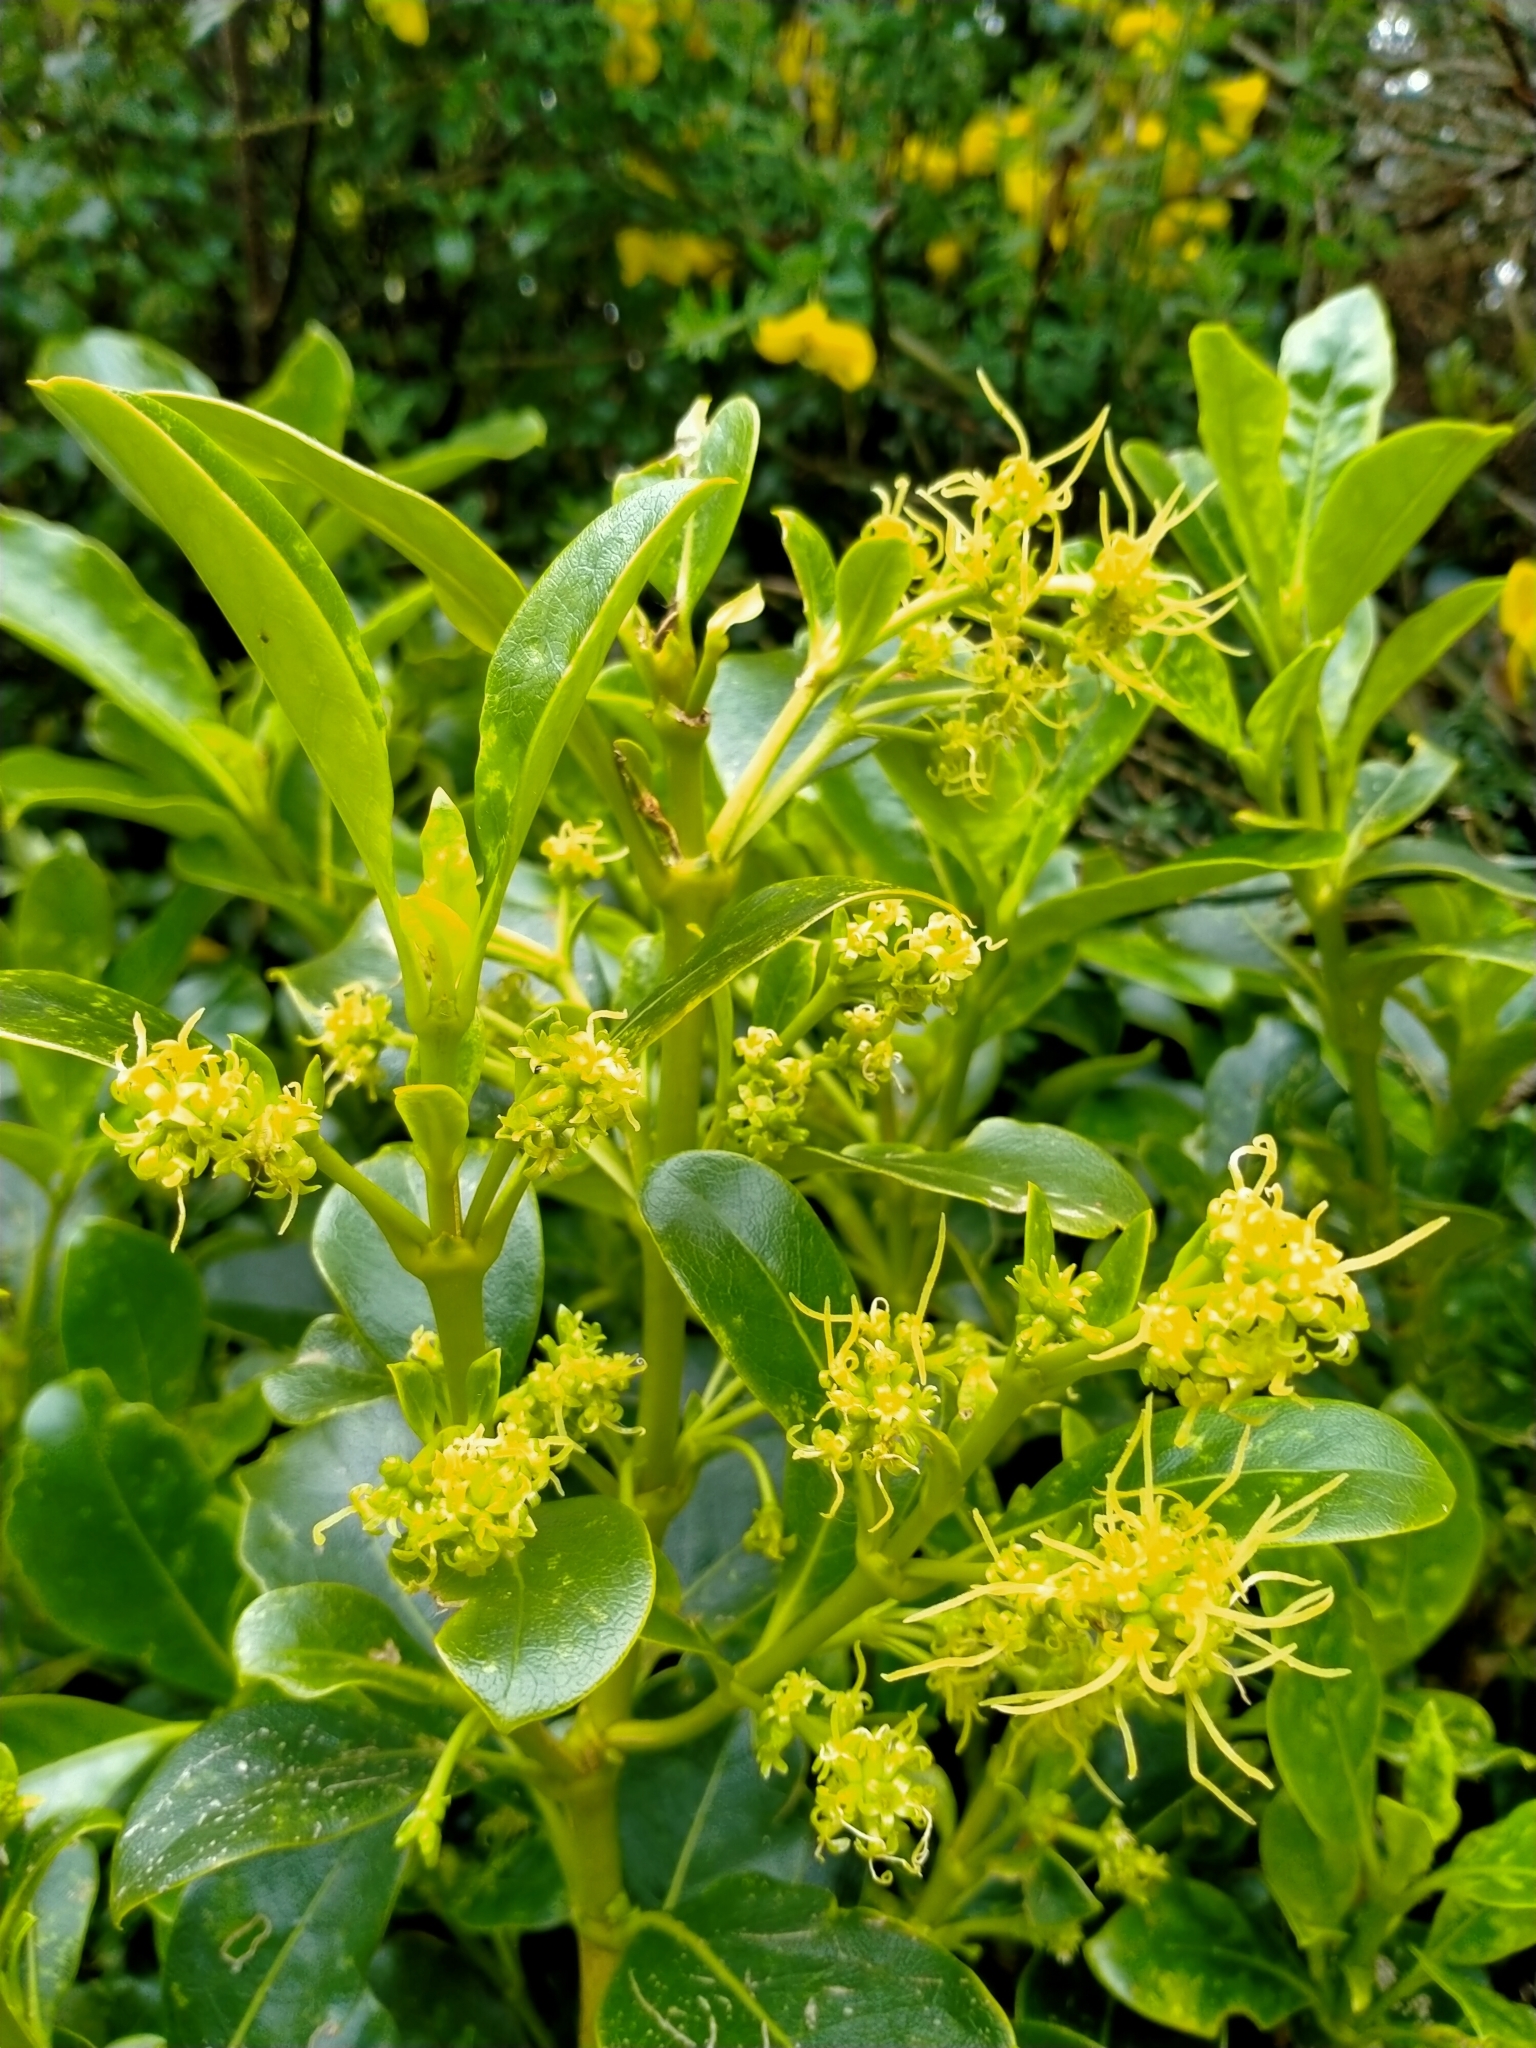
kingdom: Plantae
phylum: Tracheophyta
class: Magnoliopsida
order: Gentianales
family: Rubiaceae
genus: Coprosma
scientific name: Coprosma lucida
